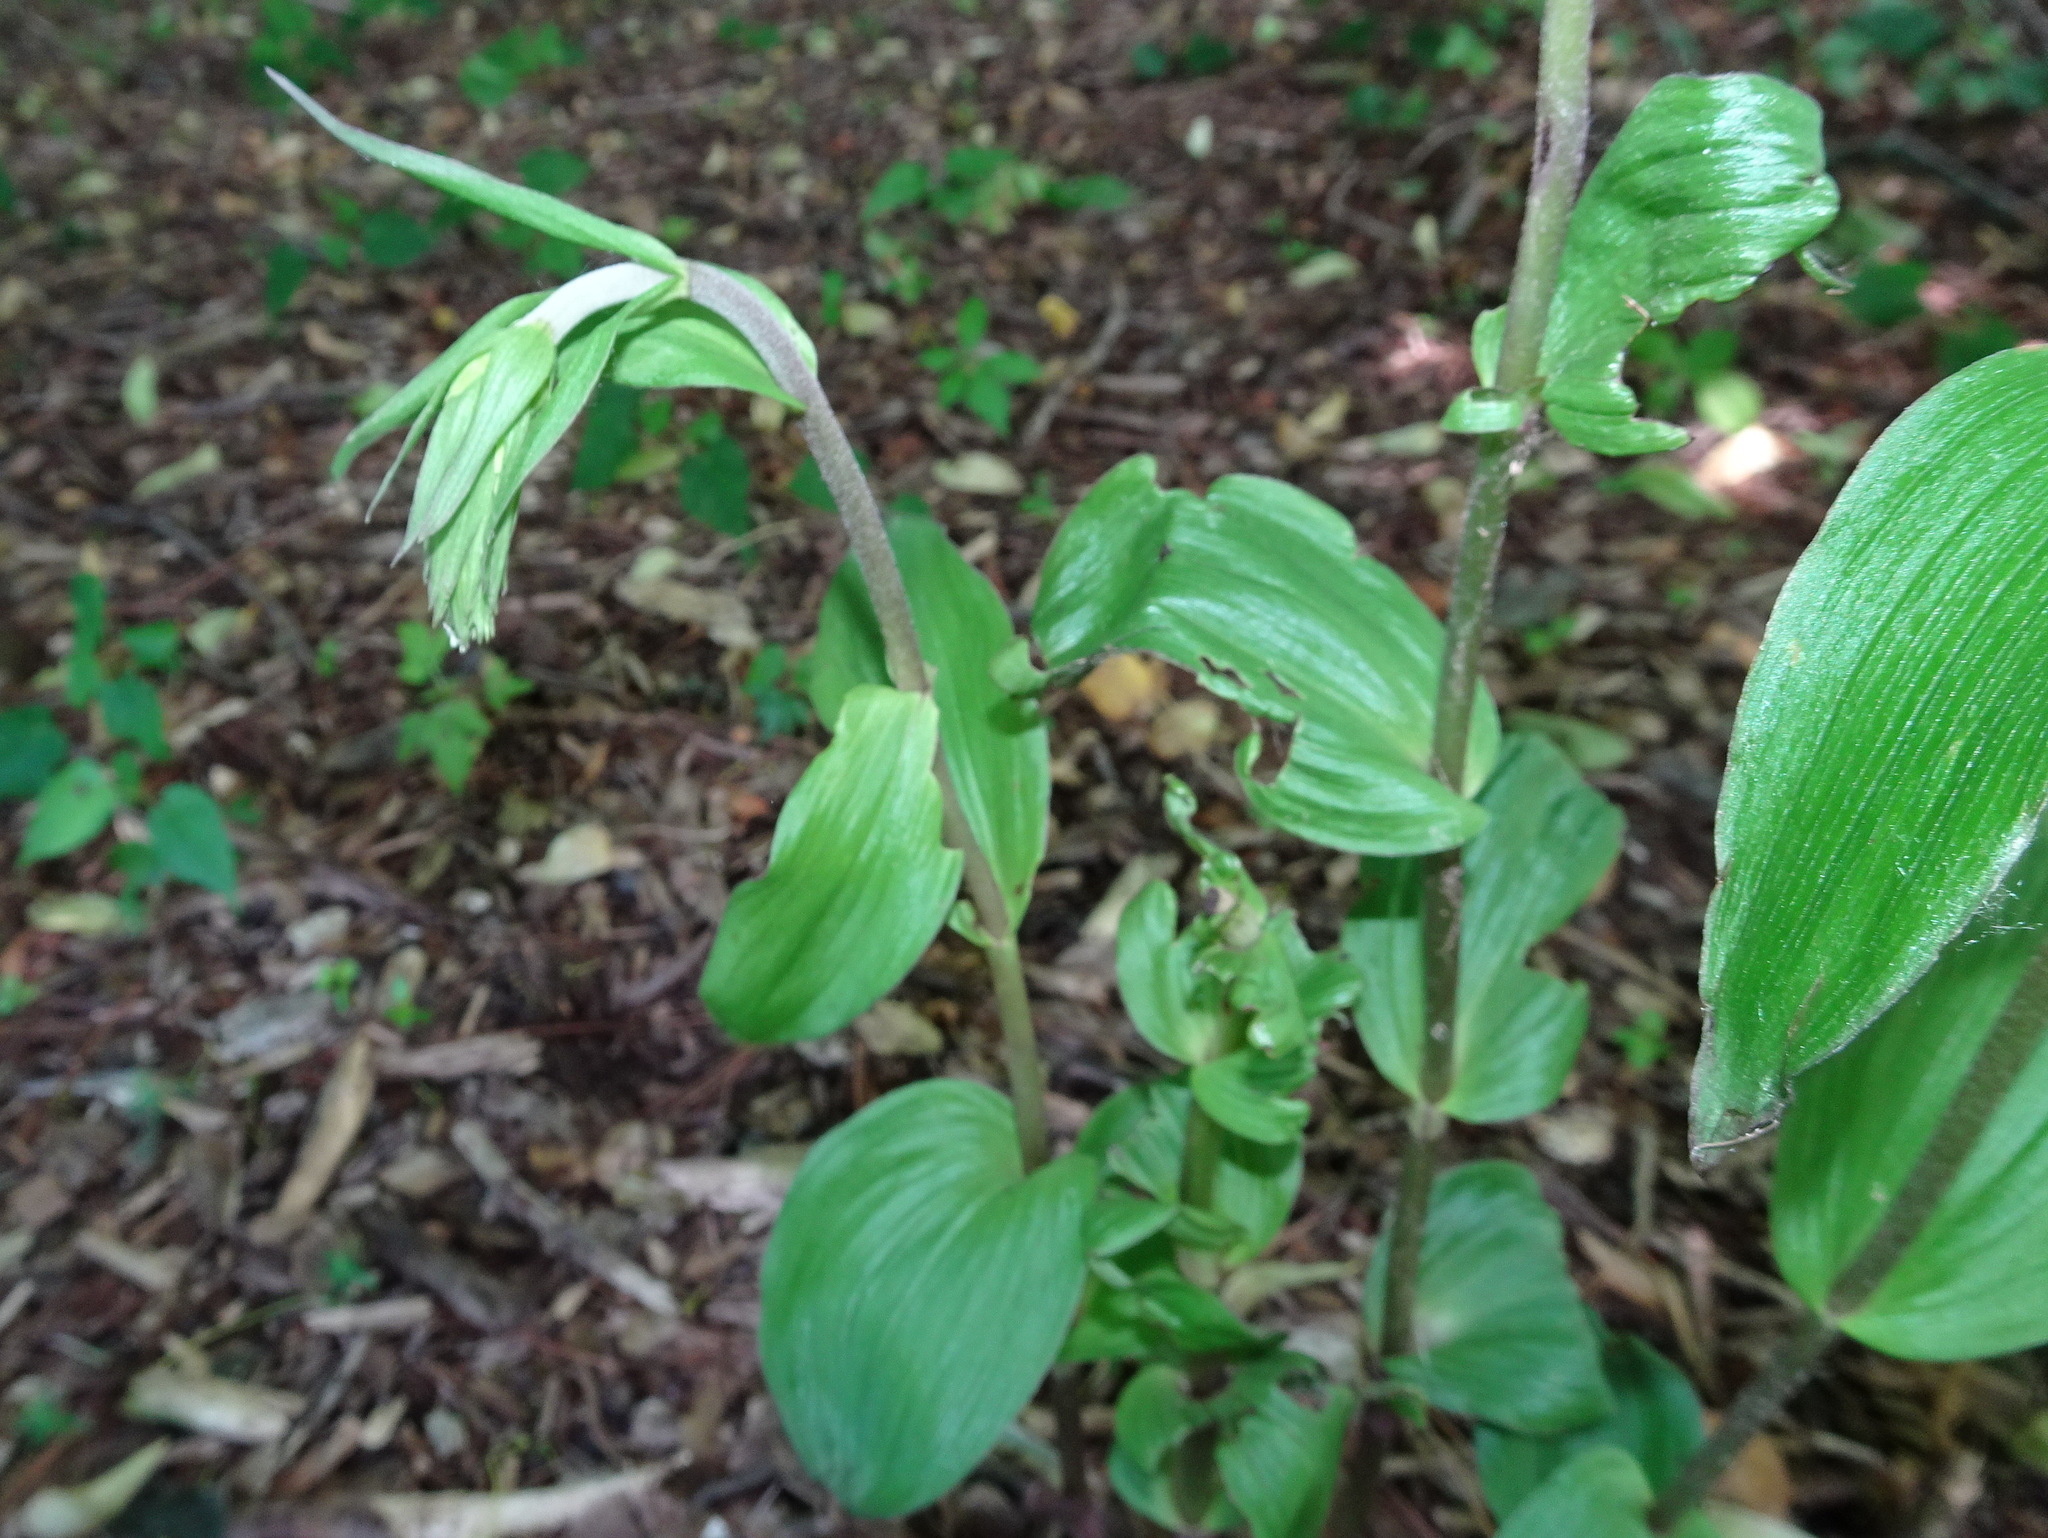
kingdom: Plantae
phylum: Tracheophyta
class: Liliopsida
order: Asparagales
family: Orchidaceae
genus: Epipactis
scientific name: Epipactis helleborine
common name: Broad-leaved helleborine
